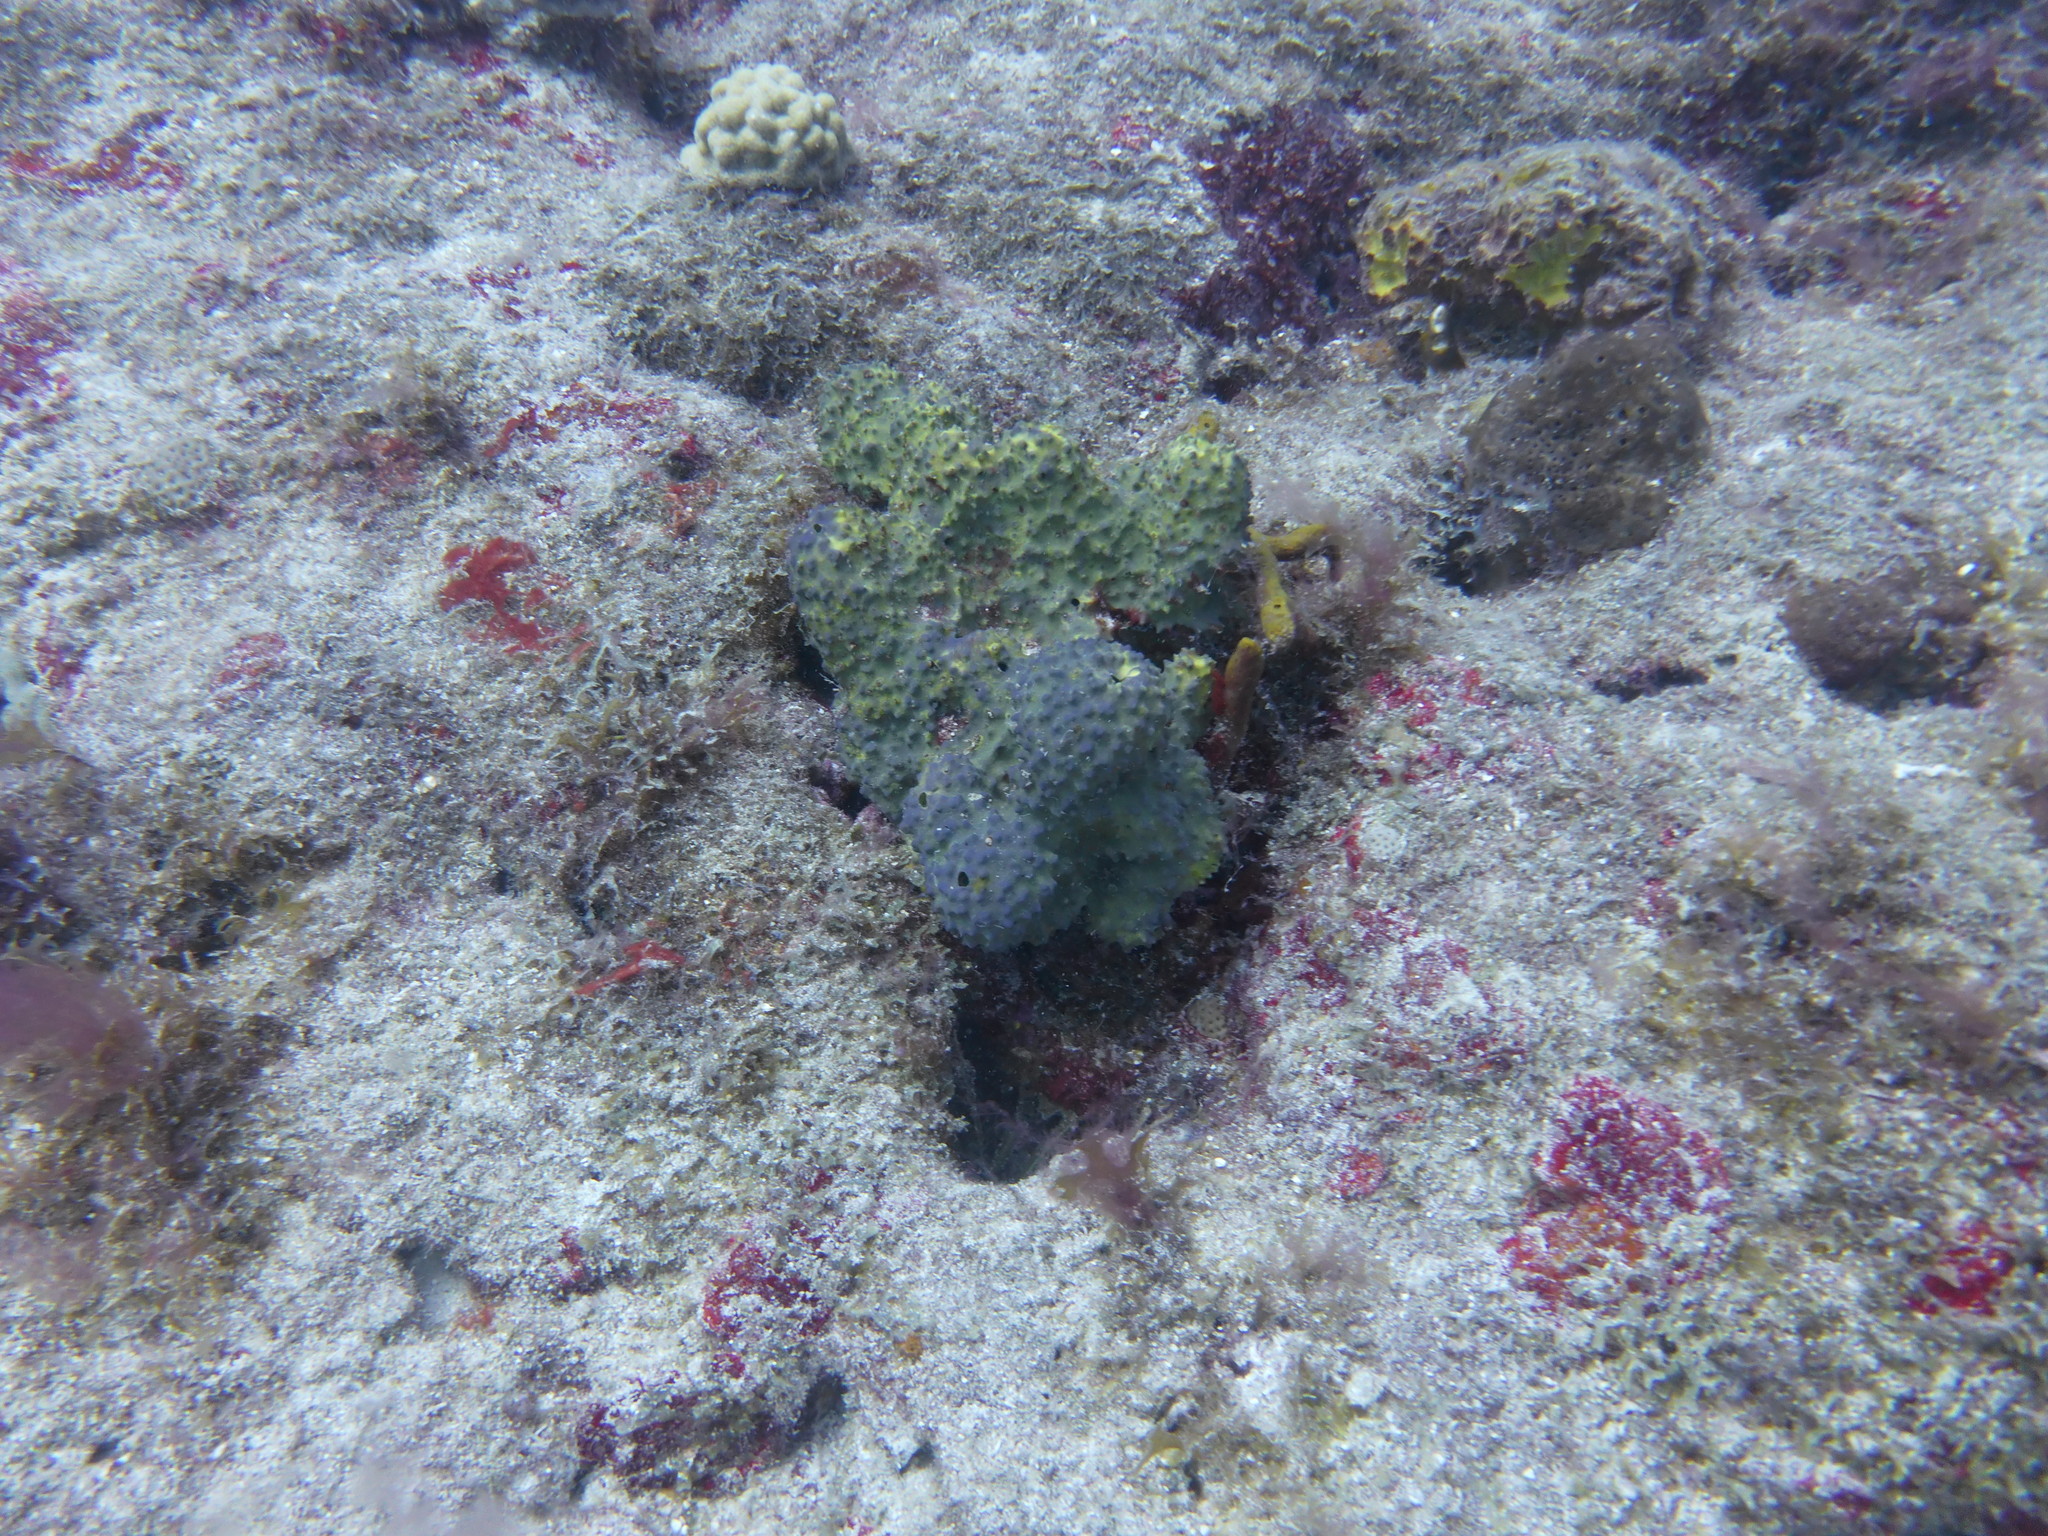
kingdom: Animalia
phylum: Porifera
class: Demospongiae
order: Verongiida
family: Aplysinidae
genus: Aiolochroia
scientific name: Aiolochroia crassa
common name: Branching tube sponge
